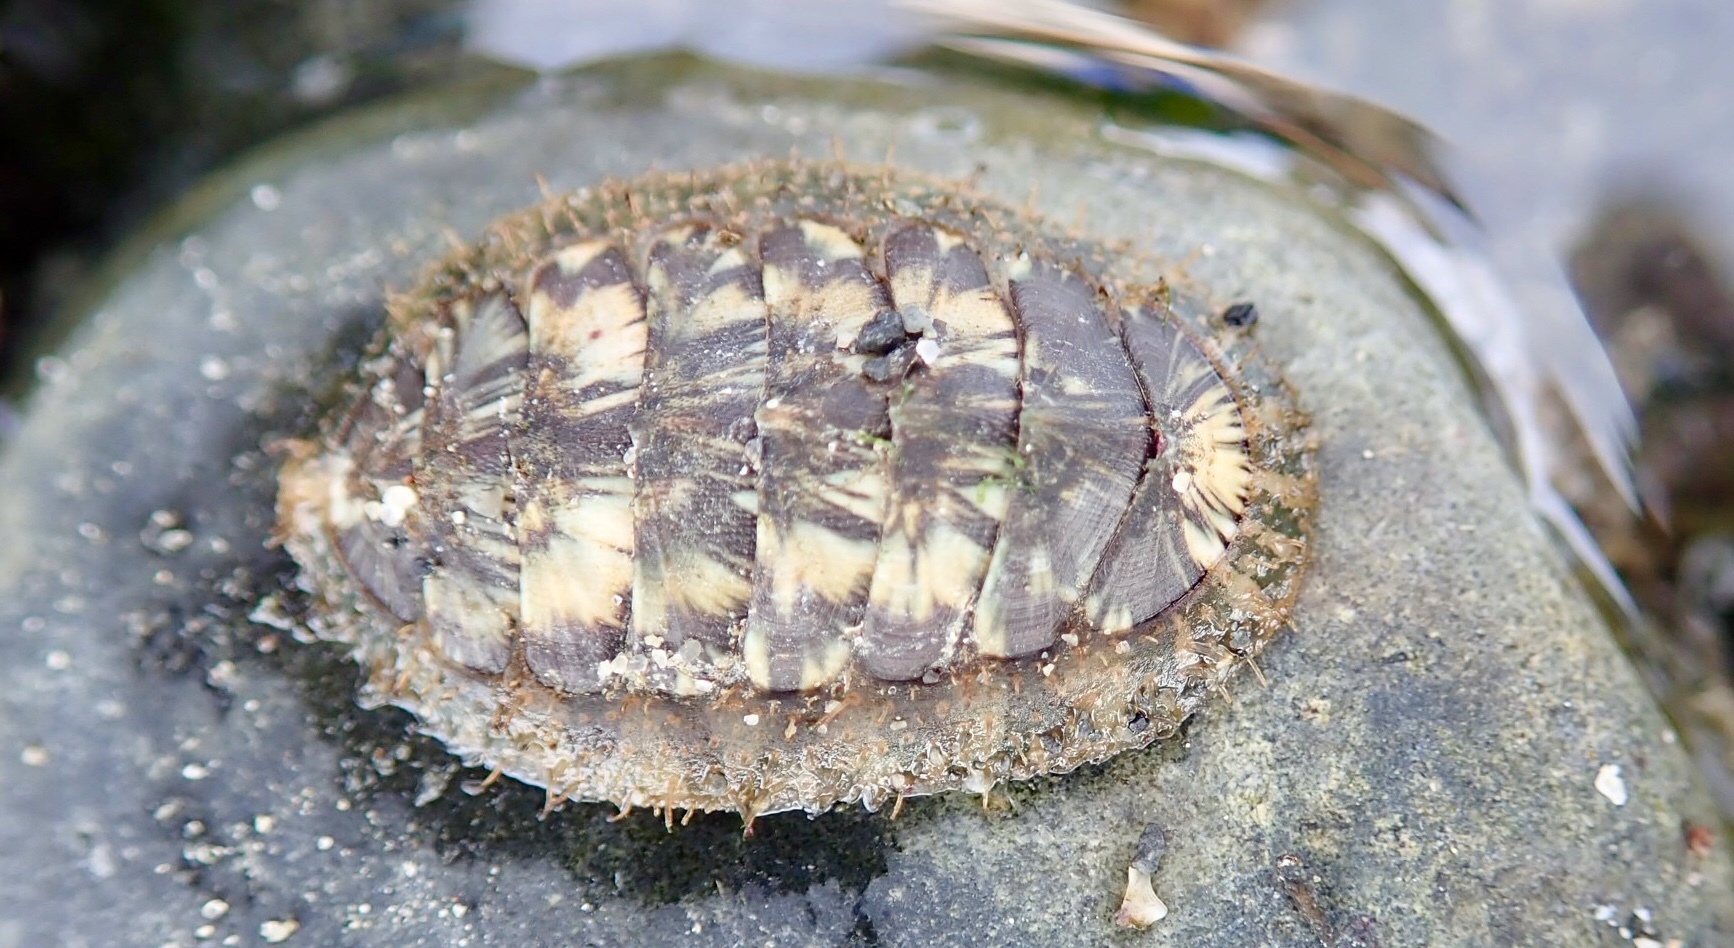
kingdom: Animalia
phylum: Mollusca
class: Polyplacophora
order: Chitonida
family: Mopaliidae
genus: Mopalia
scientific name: Mopalia lignosa
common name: Woody chiton
